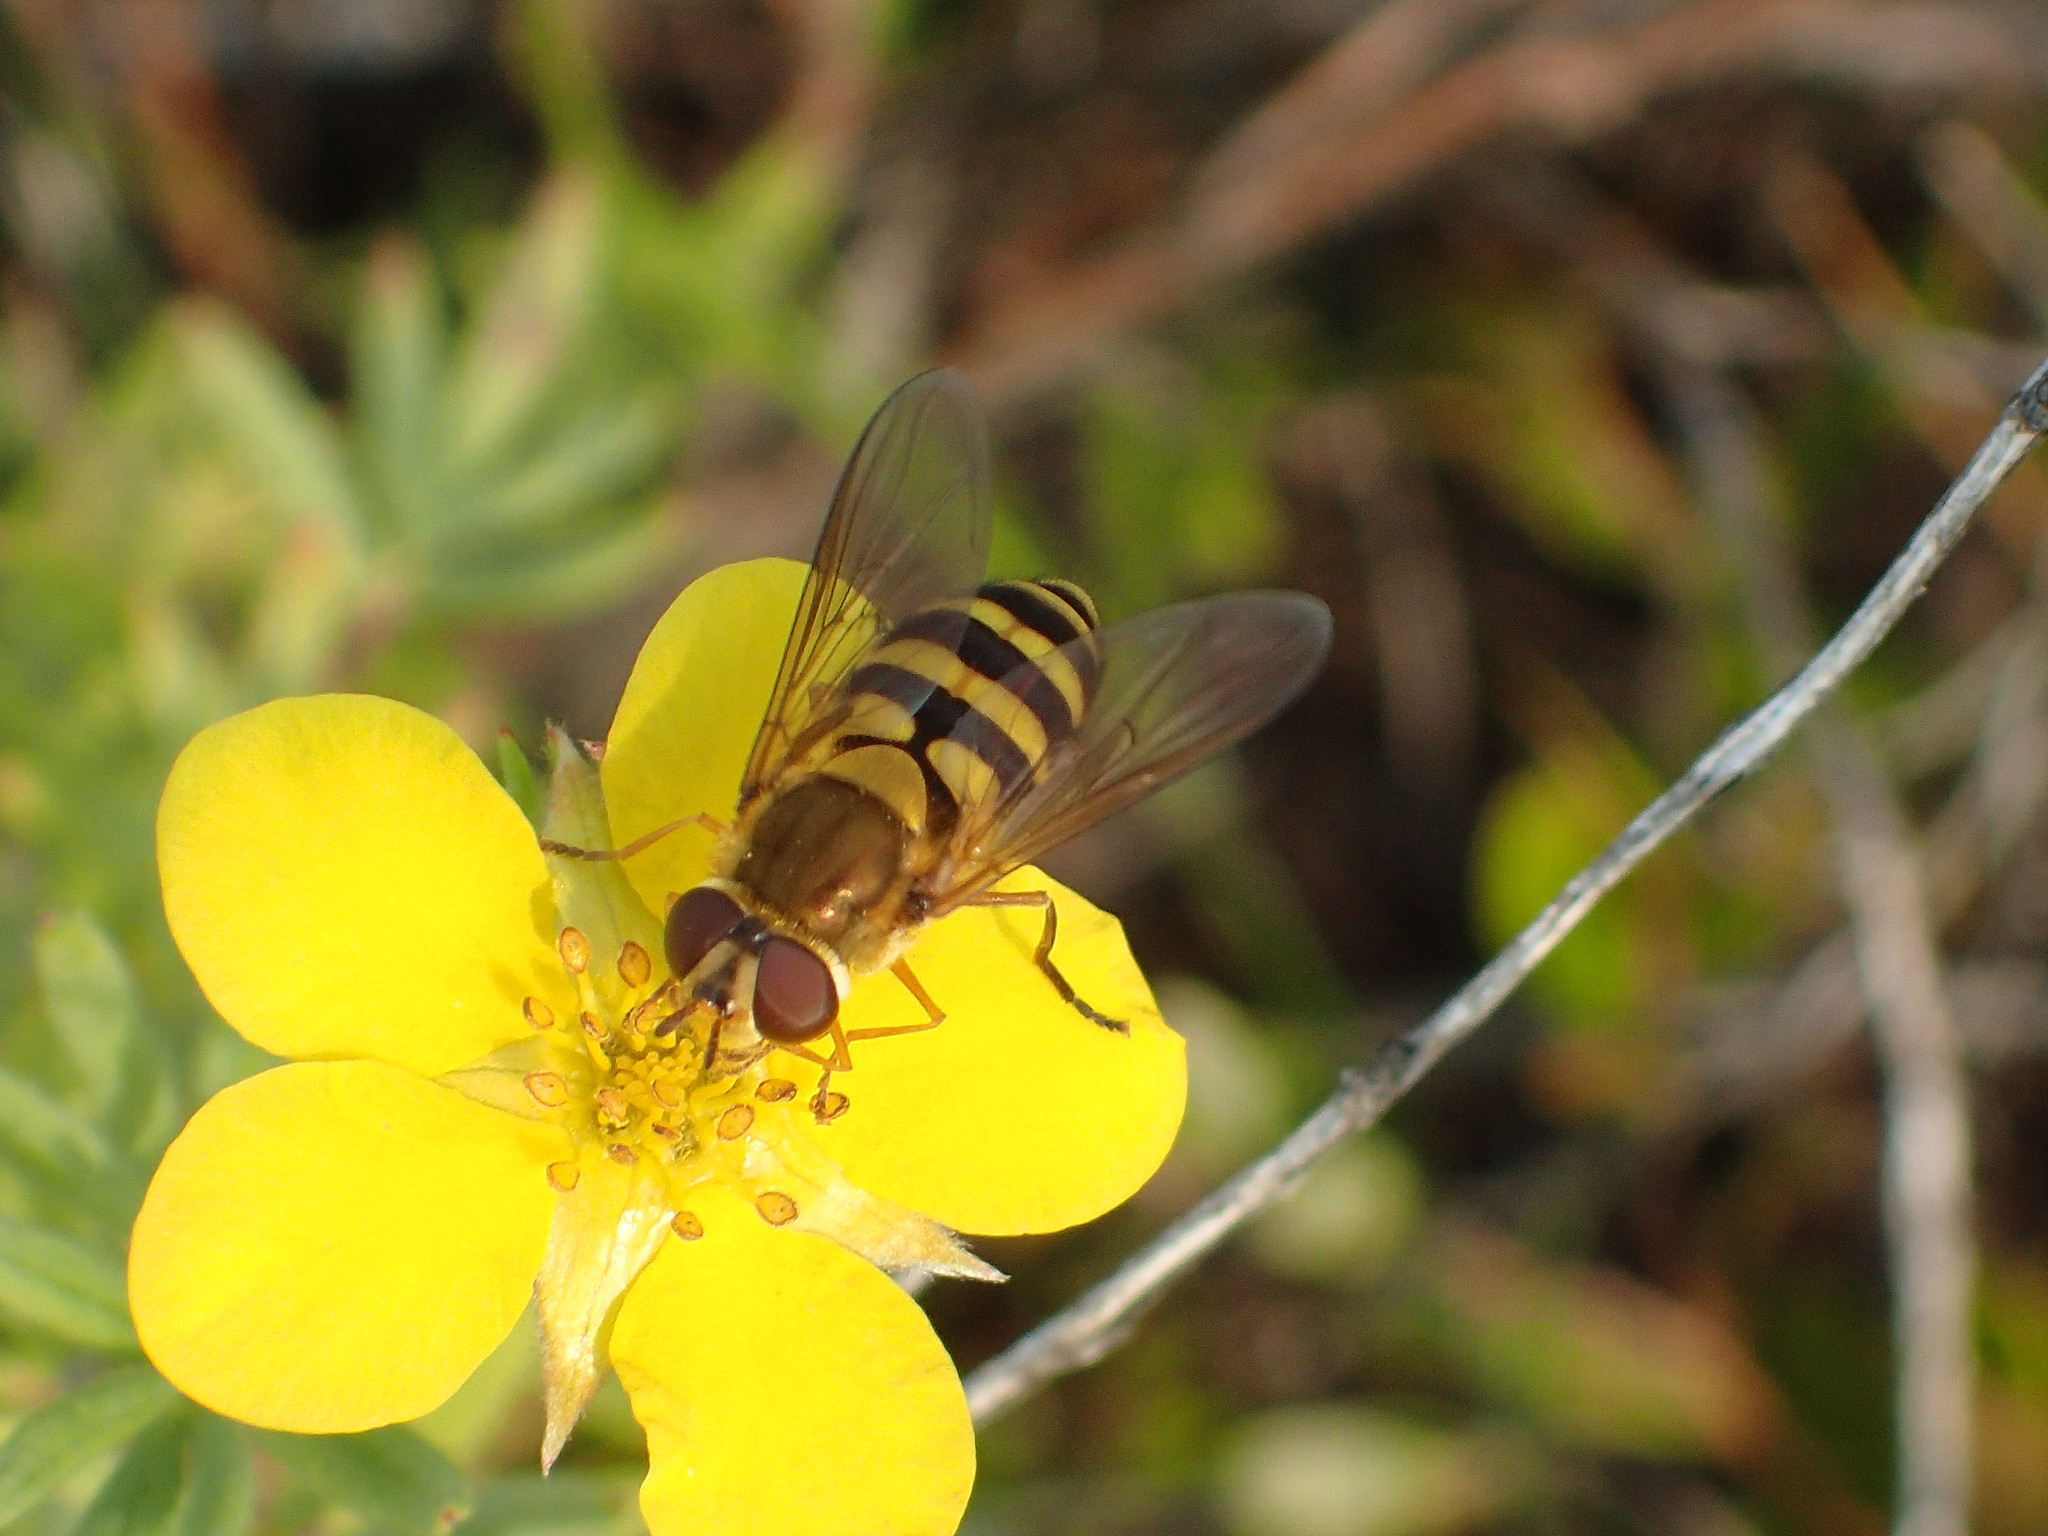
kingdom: Animalia
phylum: Arthropoda
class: Insecta
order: Diptera
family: Syrphidae
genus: Syrphus
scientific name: Syrphus ribesii
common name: Common flower fly
